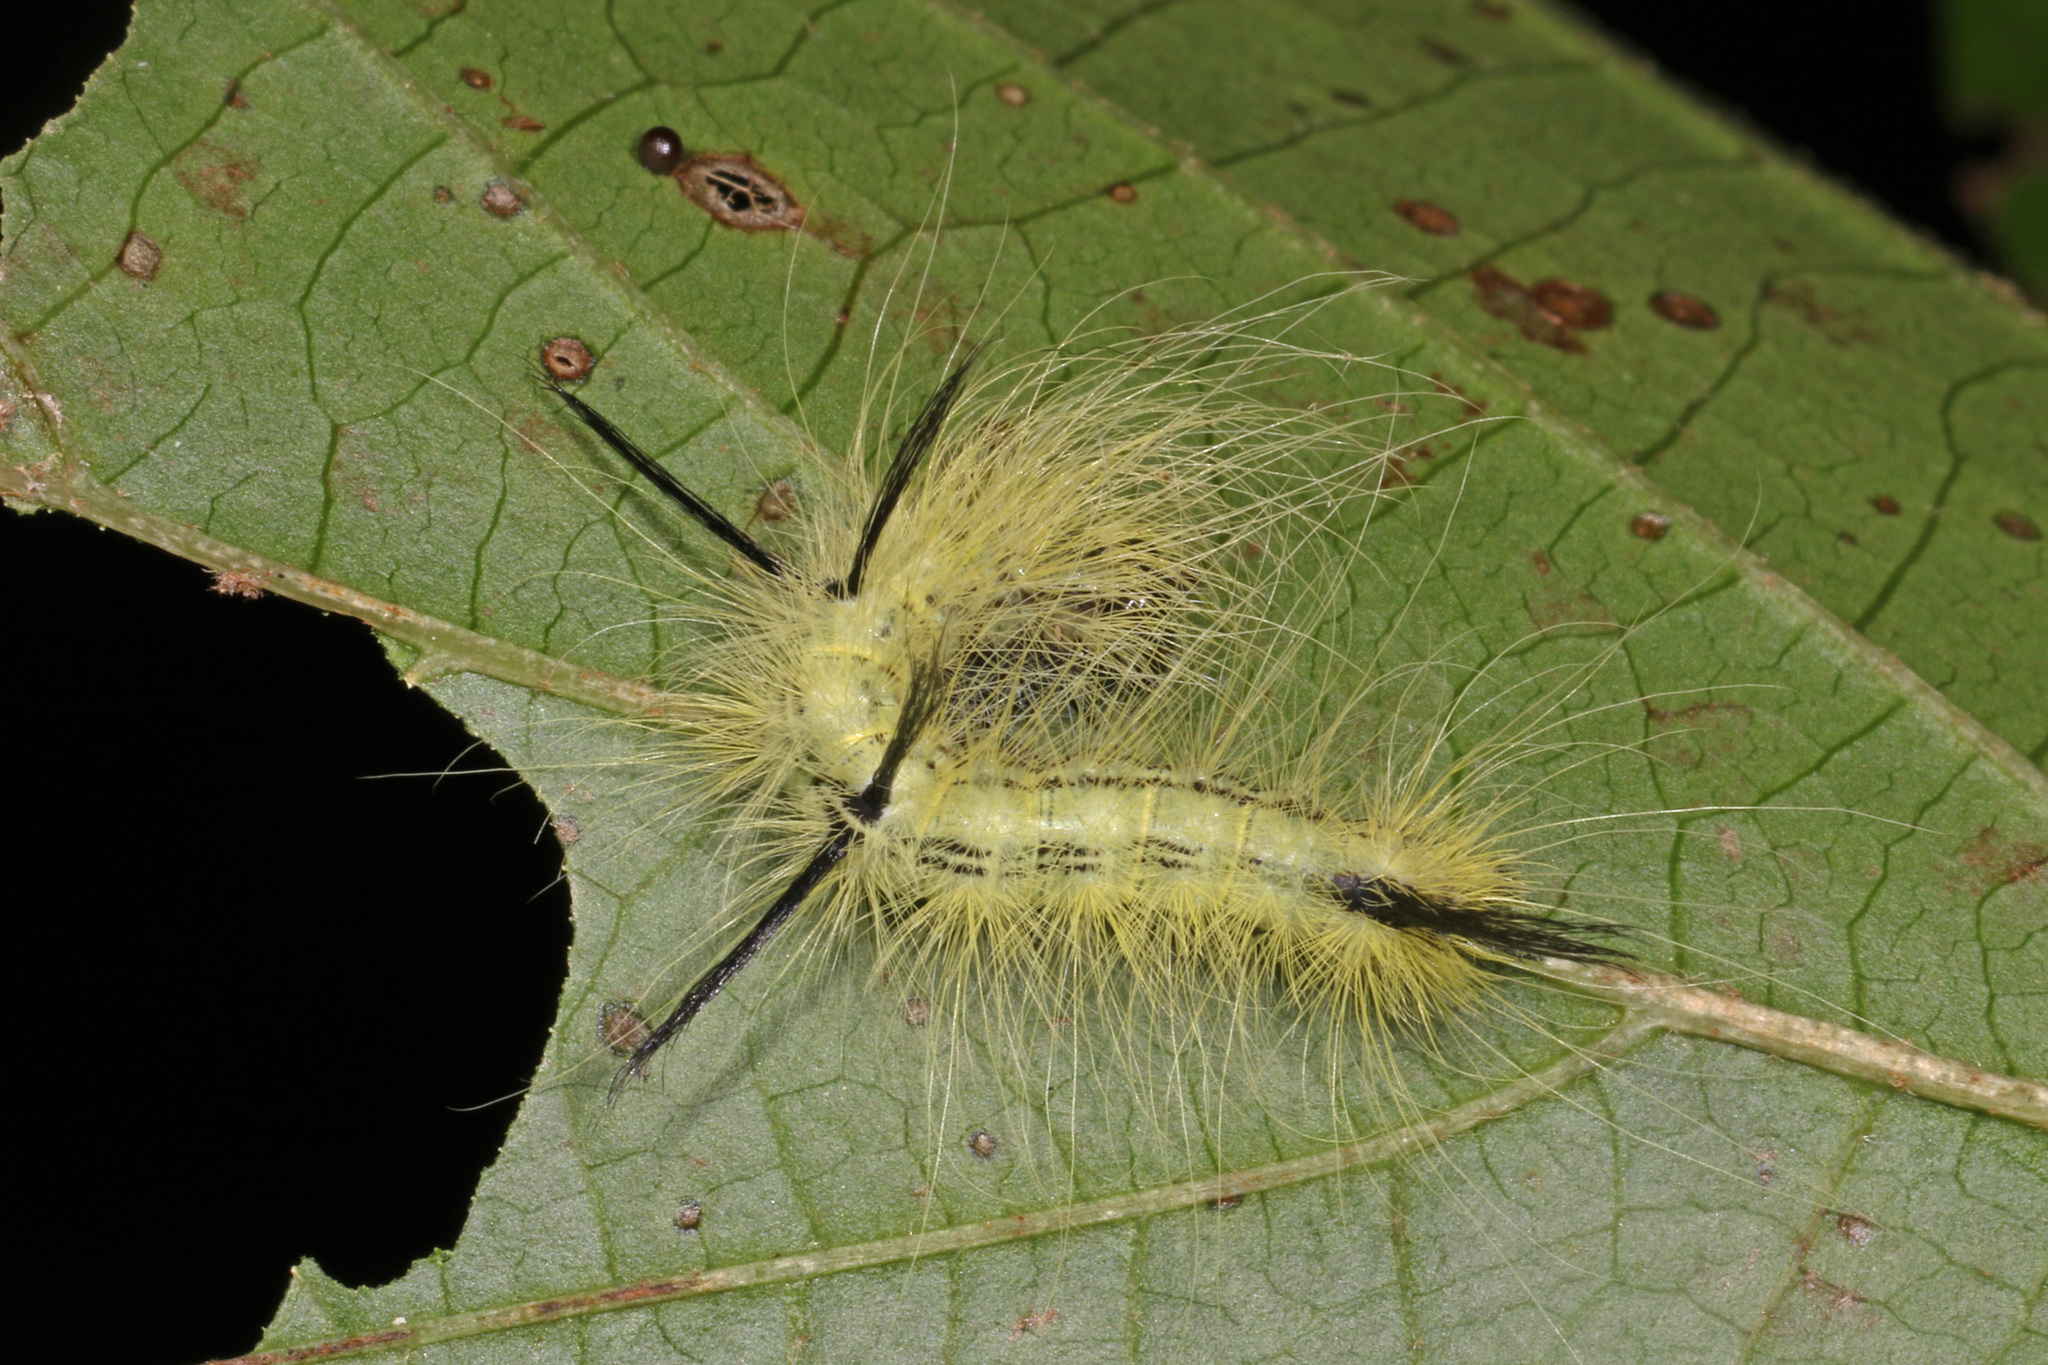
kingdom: Animalia
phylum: Arthropoda
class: Insecta
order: Lepidoptera
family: Noctuidae
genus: Acronicta
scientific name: Acronicta americana
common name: American dagger
